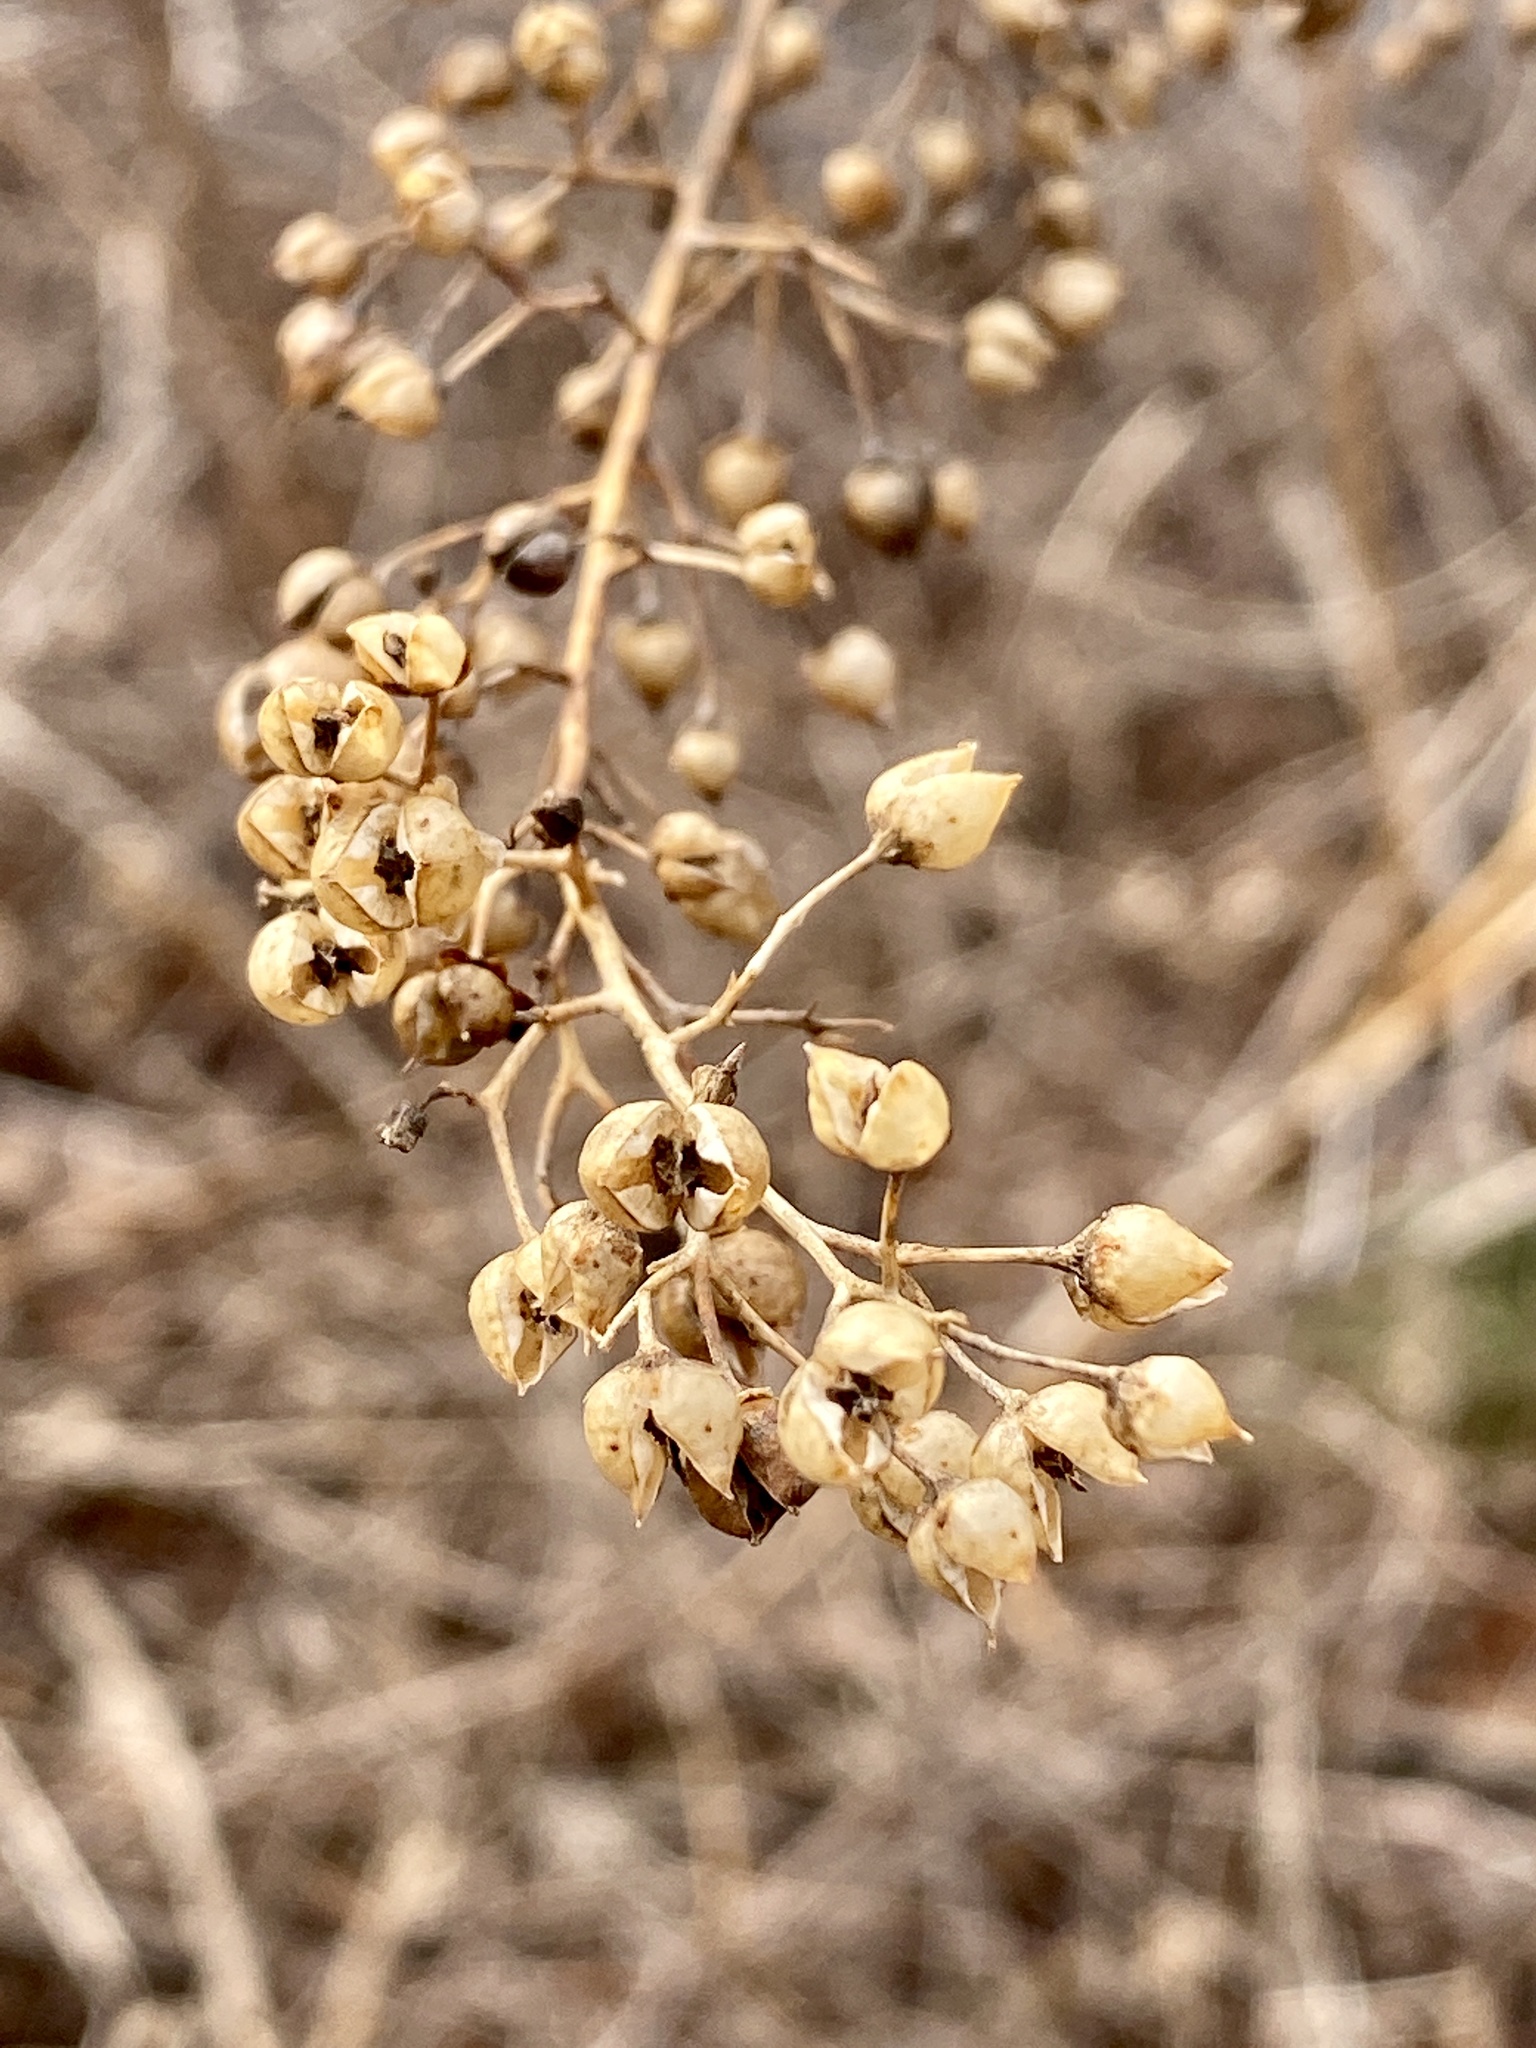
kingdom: Plantae
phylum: Tracheophyta
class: Magnoliopsida
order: Lamiales
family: Scrophulariaceae
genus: Scrophularia
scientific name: Scrophularia marilandica
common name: Eastern figwort
